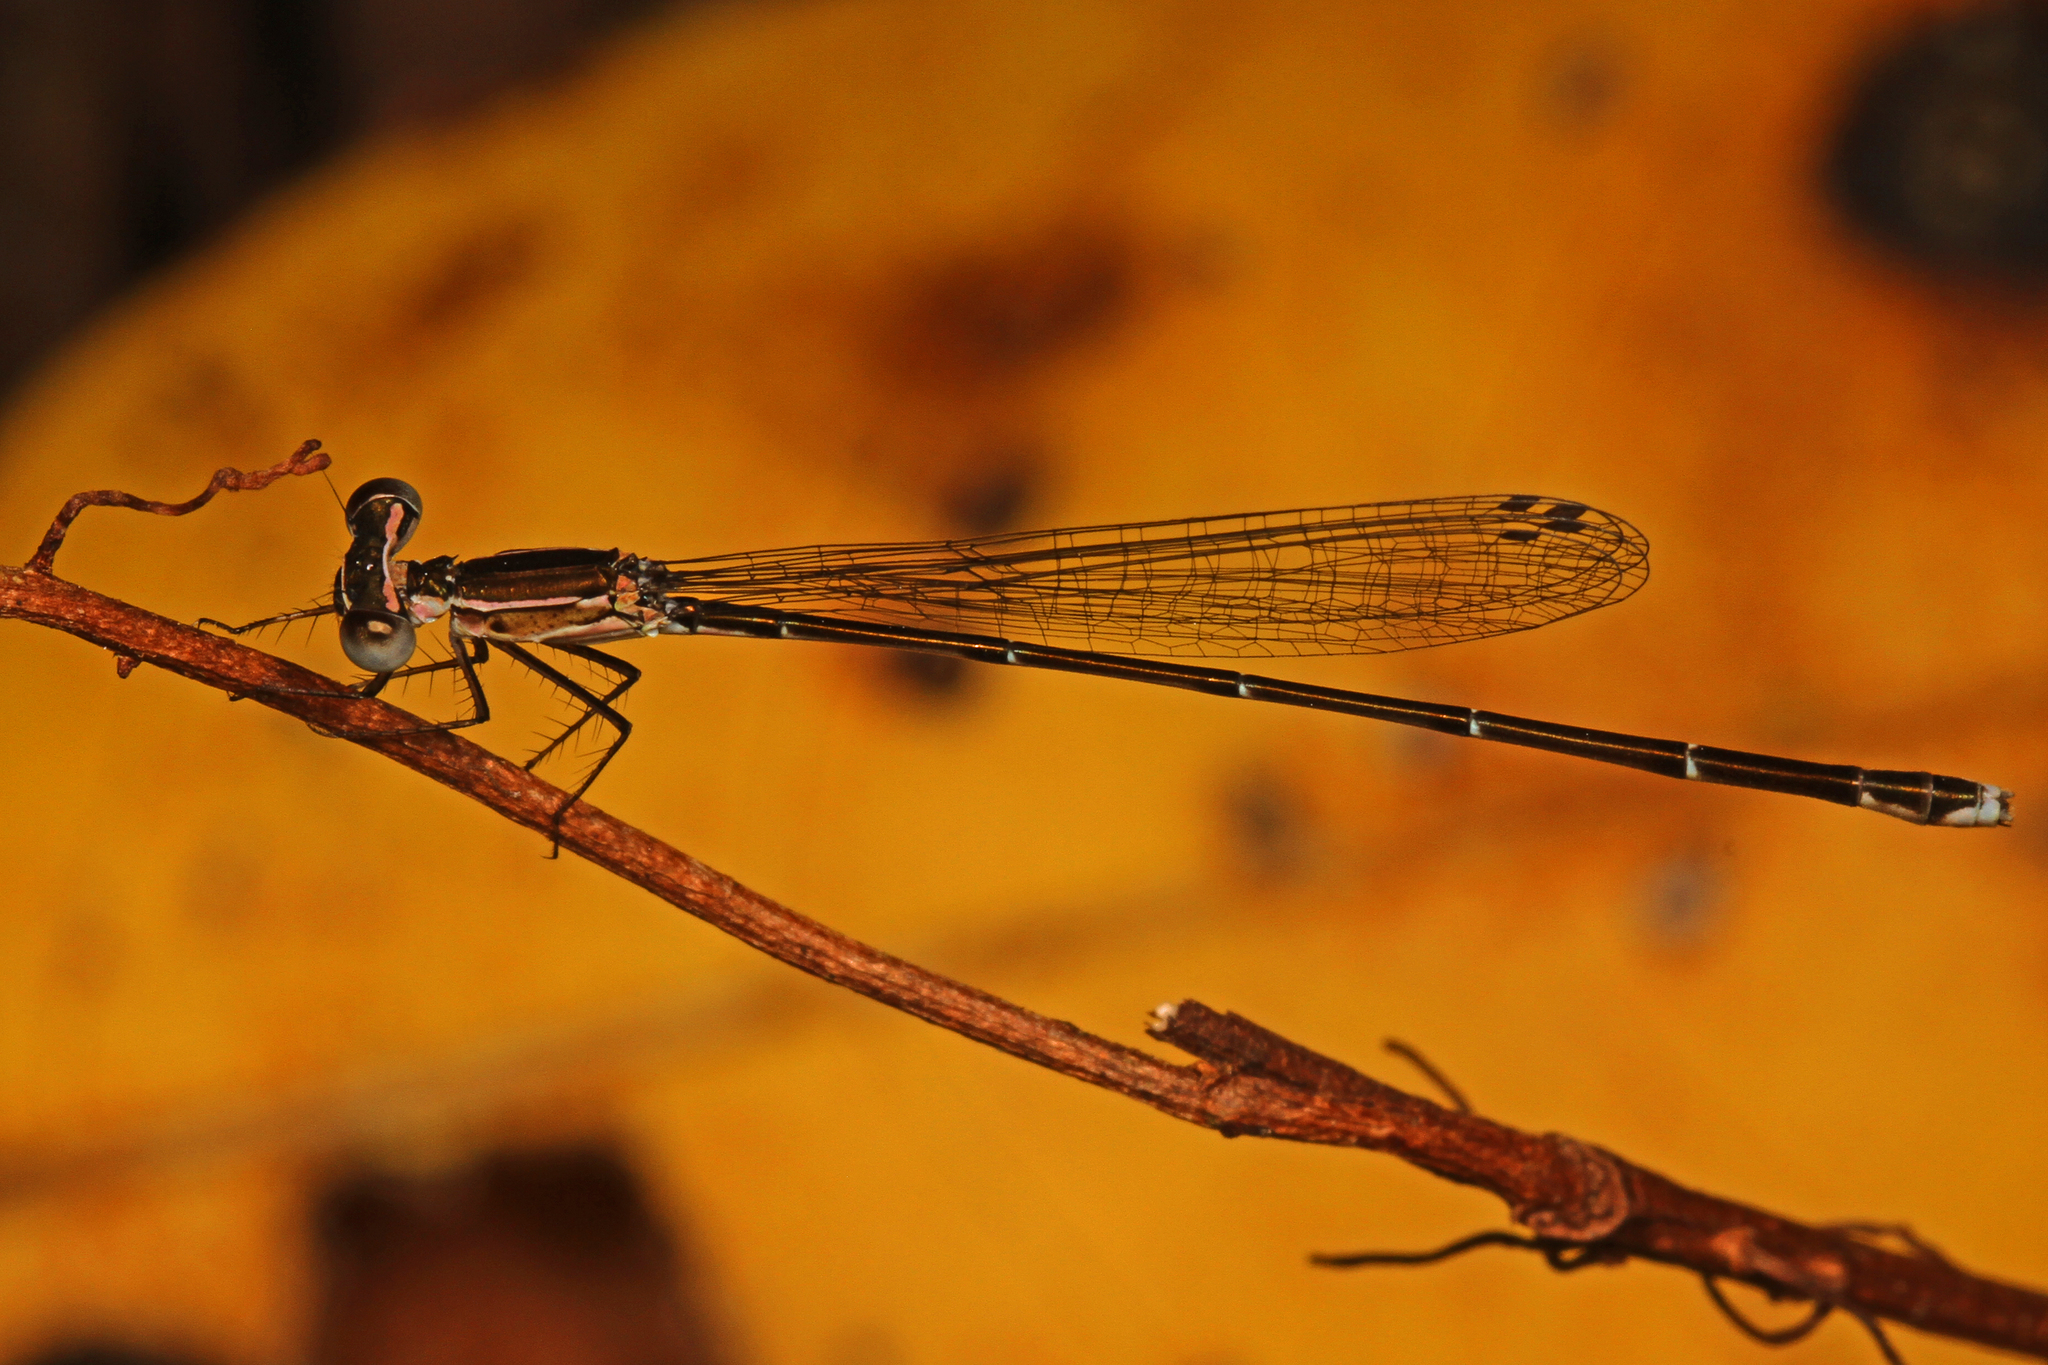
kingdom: Animalia
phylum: Arthropoda
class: Insecta
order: Odonata
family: Coenagrionidae
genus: Nehalennia
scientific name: Nehalennia pallidula
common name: Everglades sprite
